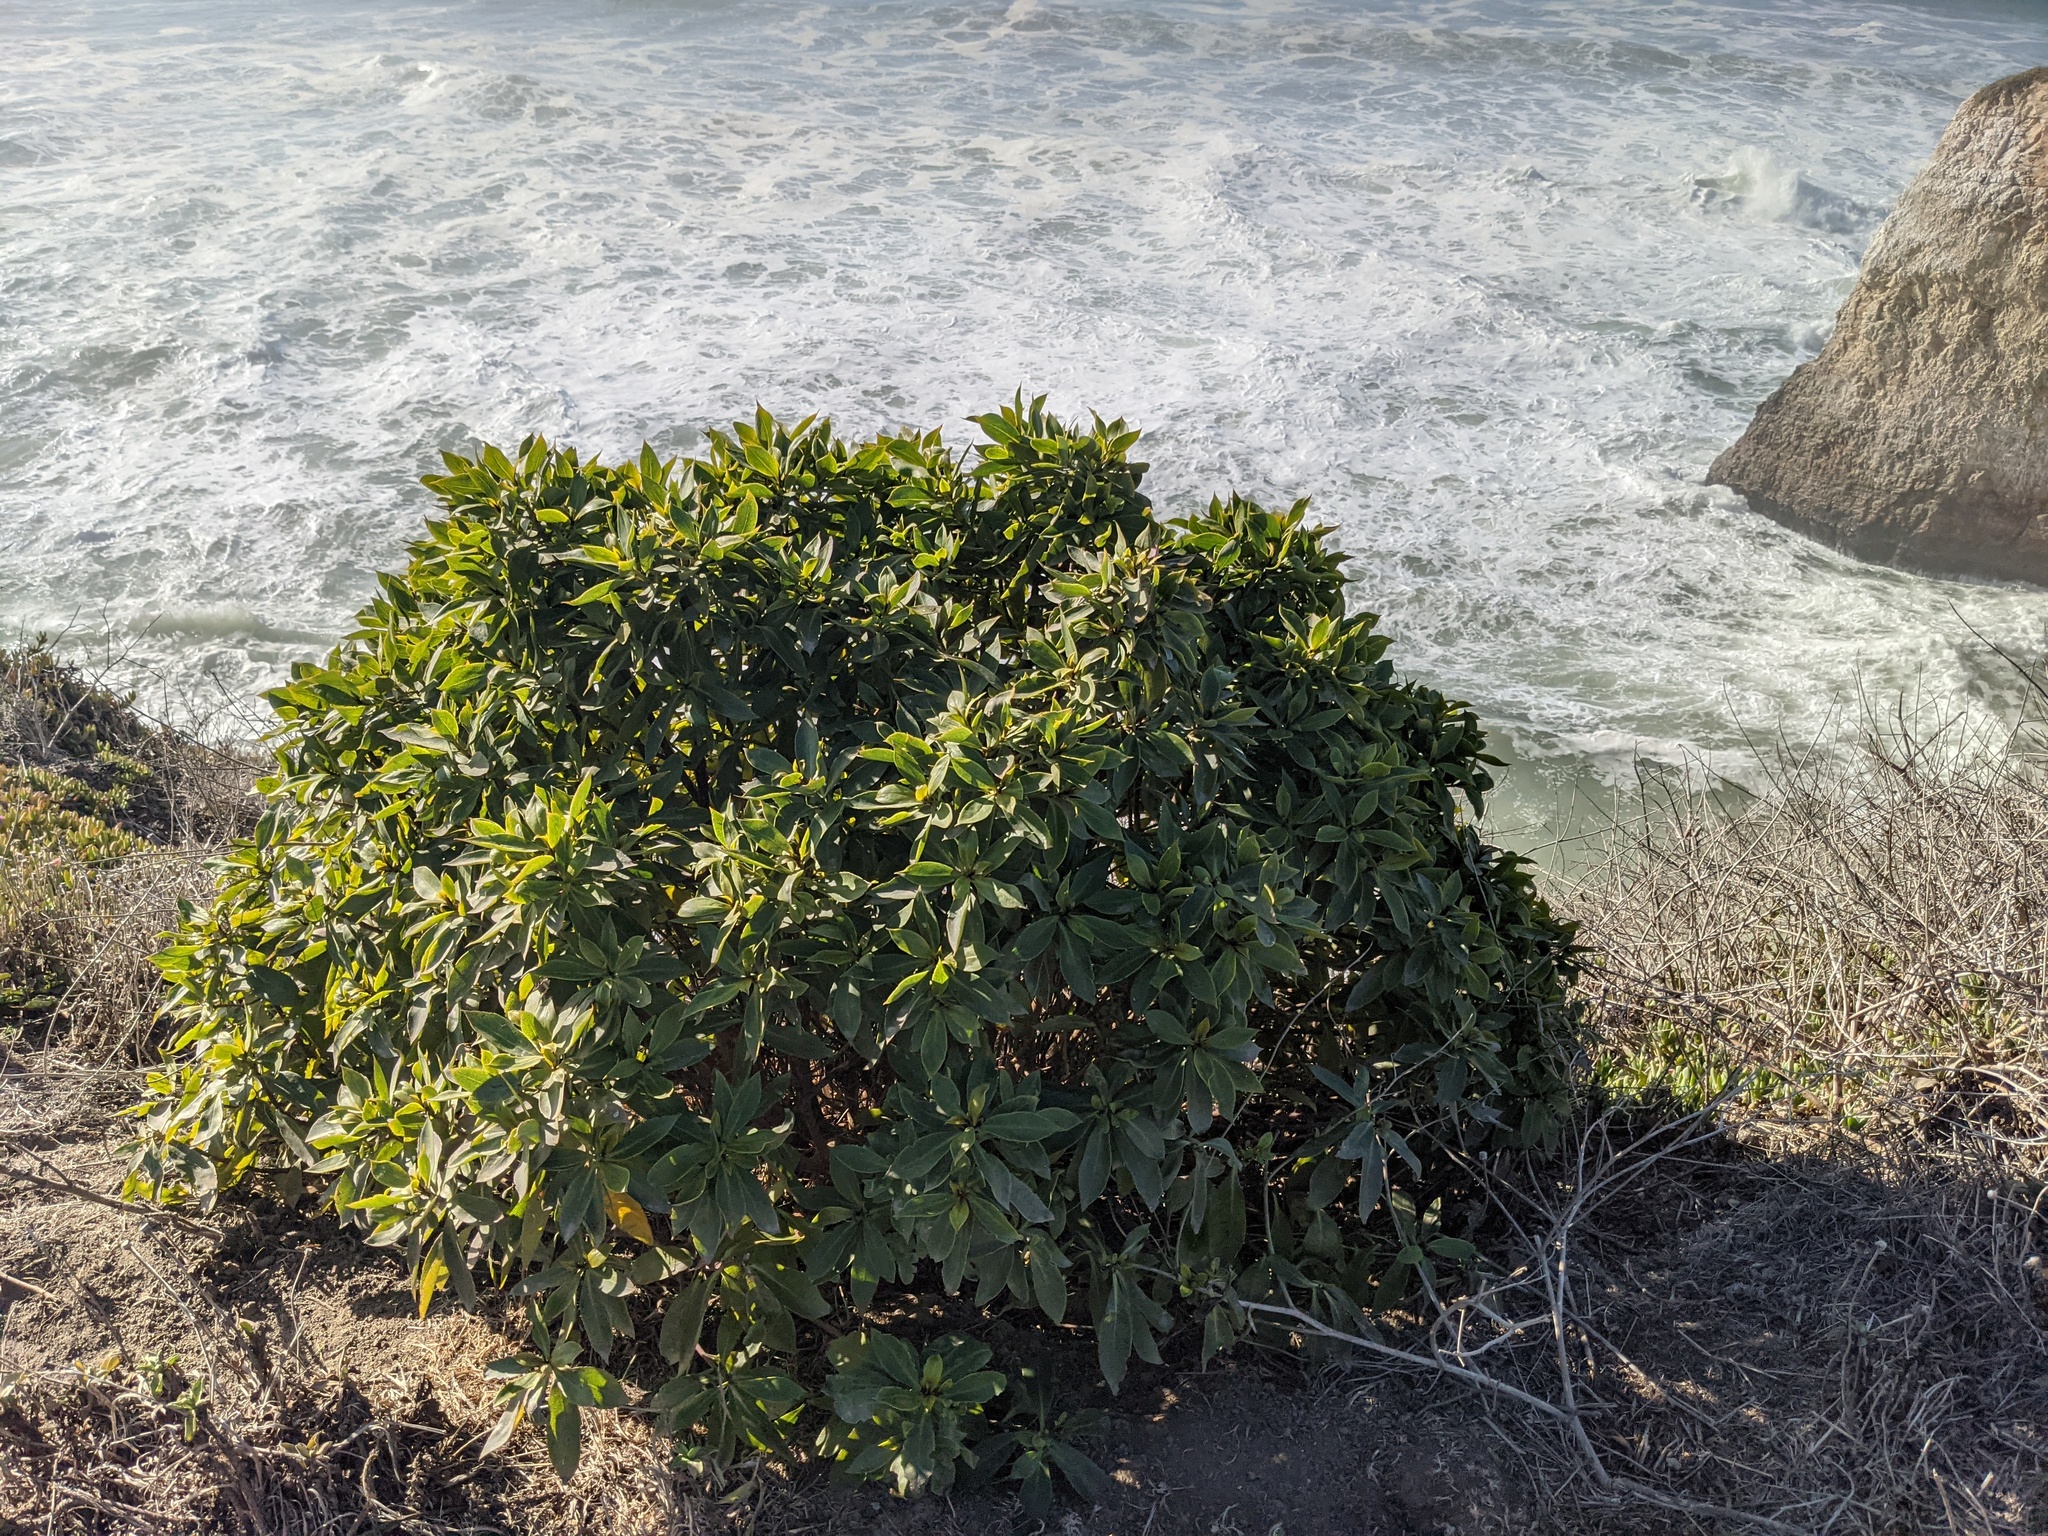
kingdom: Plantae
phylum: Tracheophyta
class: Magnoliopsida
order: Lamiales
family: Scrophulariaceae
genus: Myoporum
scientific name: Myoporum laetum
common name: Ngaio tree
